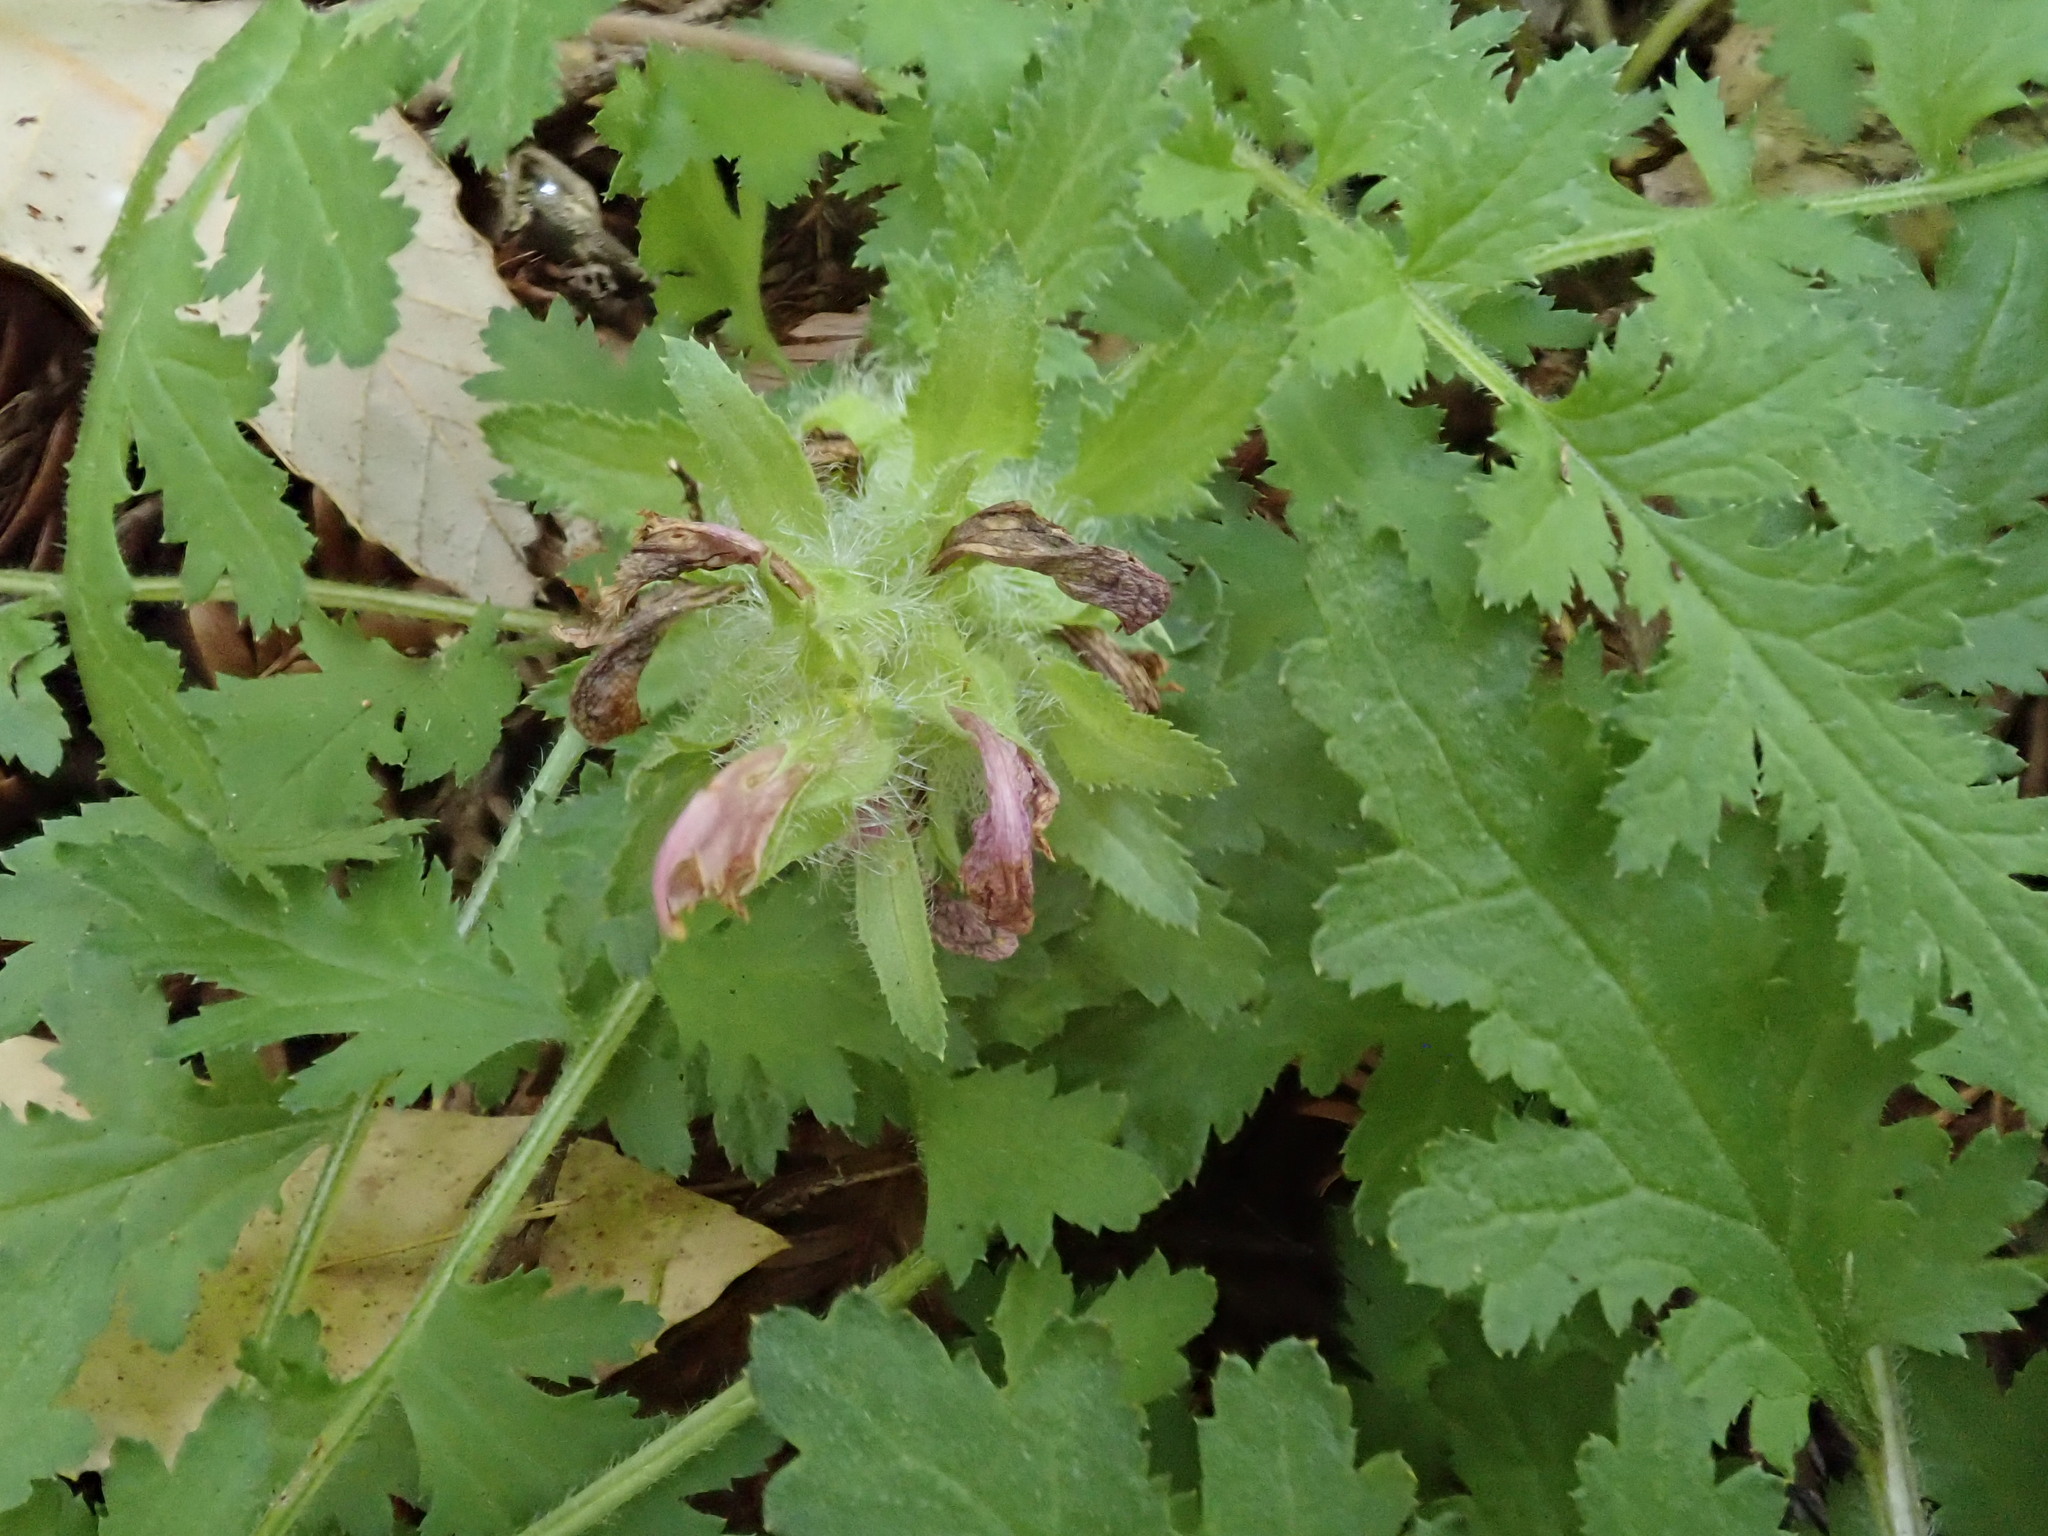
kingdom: Plantae
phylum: Tracheophyta
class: Magnoliopsida
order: Lamiales
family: Orobanchaceae
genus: Pedicularis
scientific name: Pedicularis dudleyi
